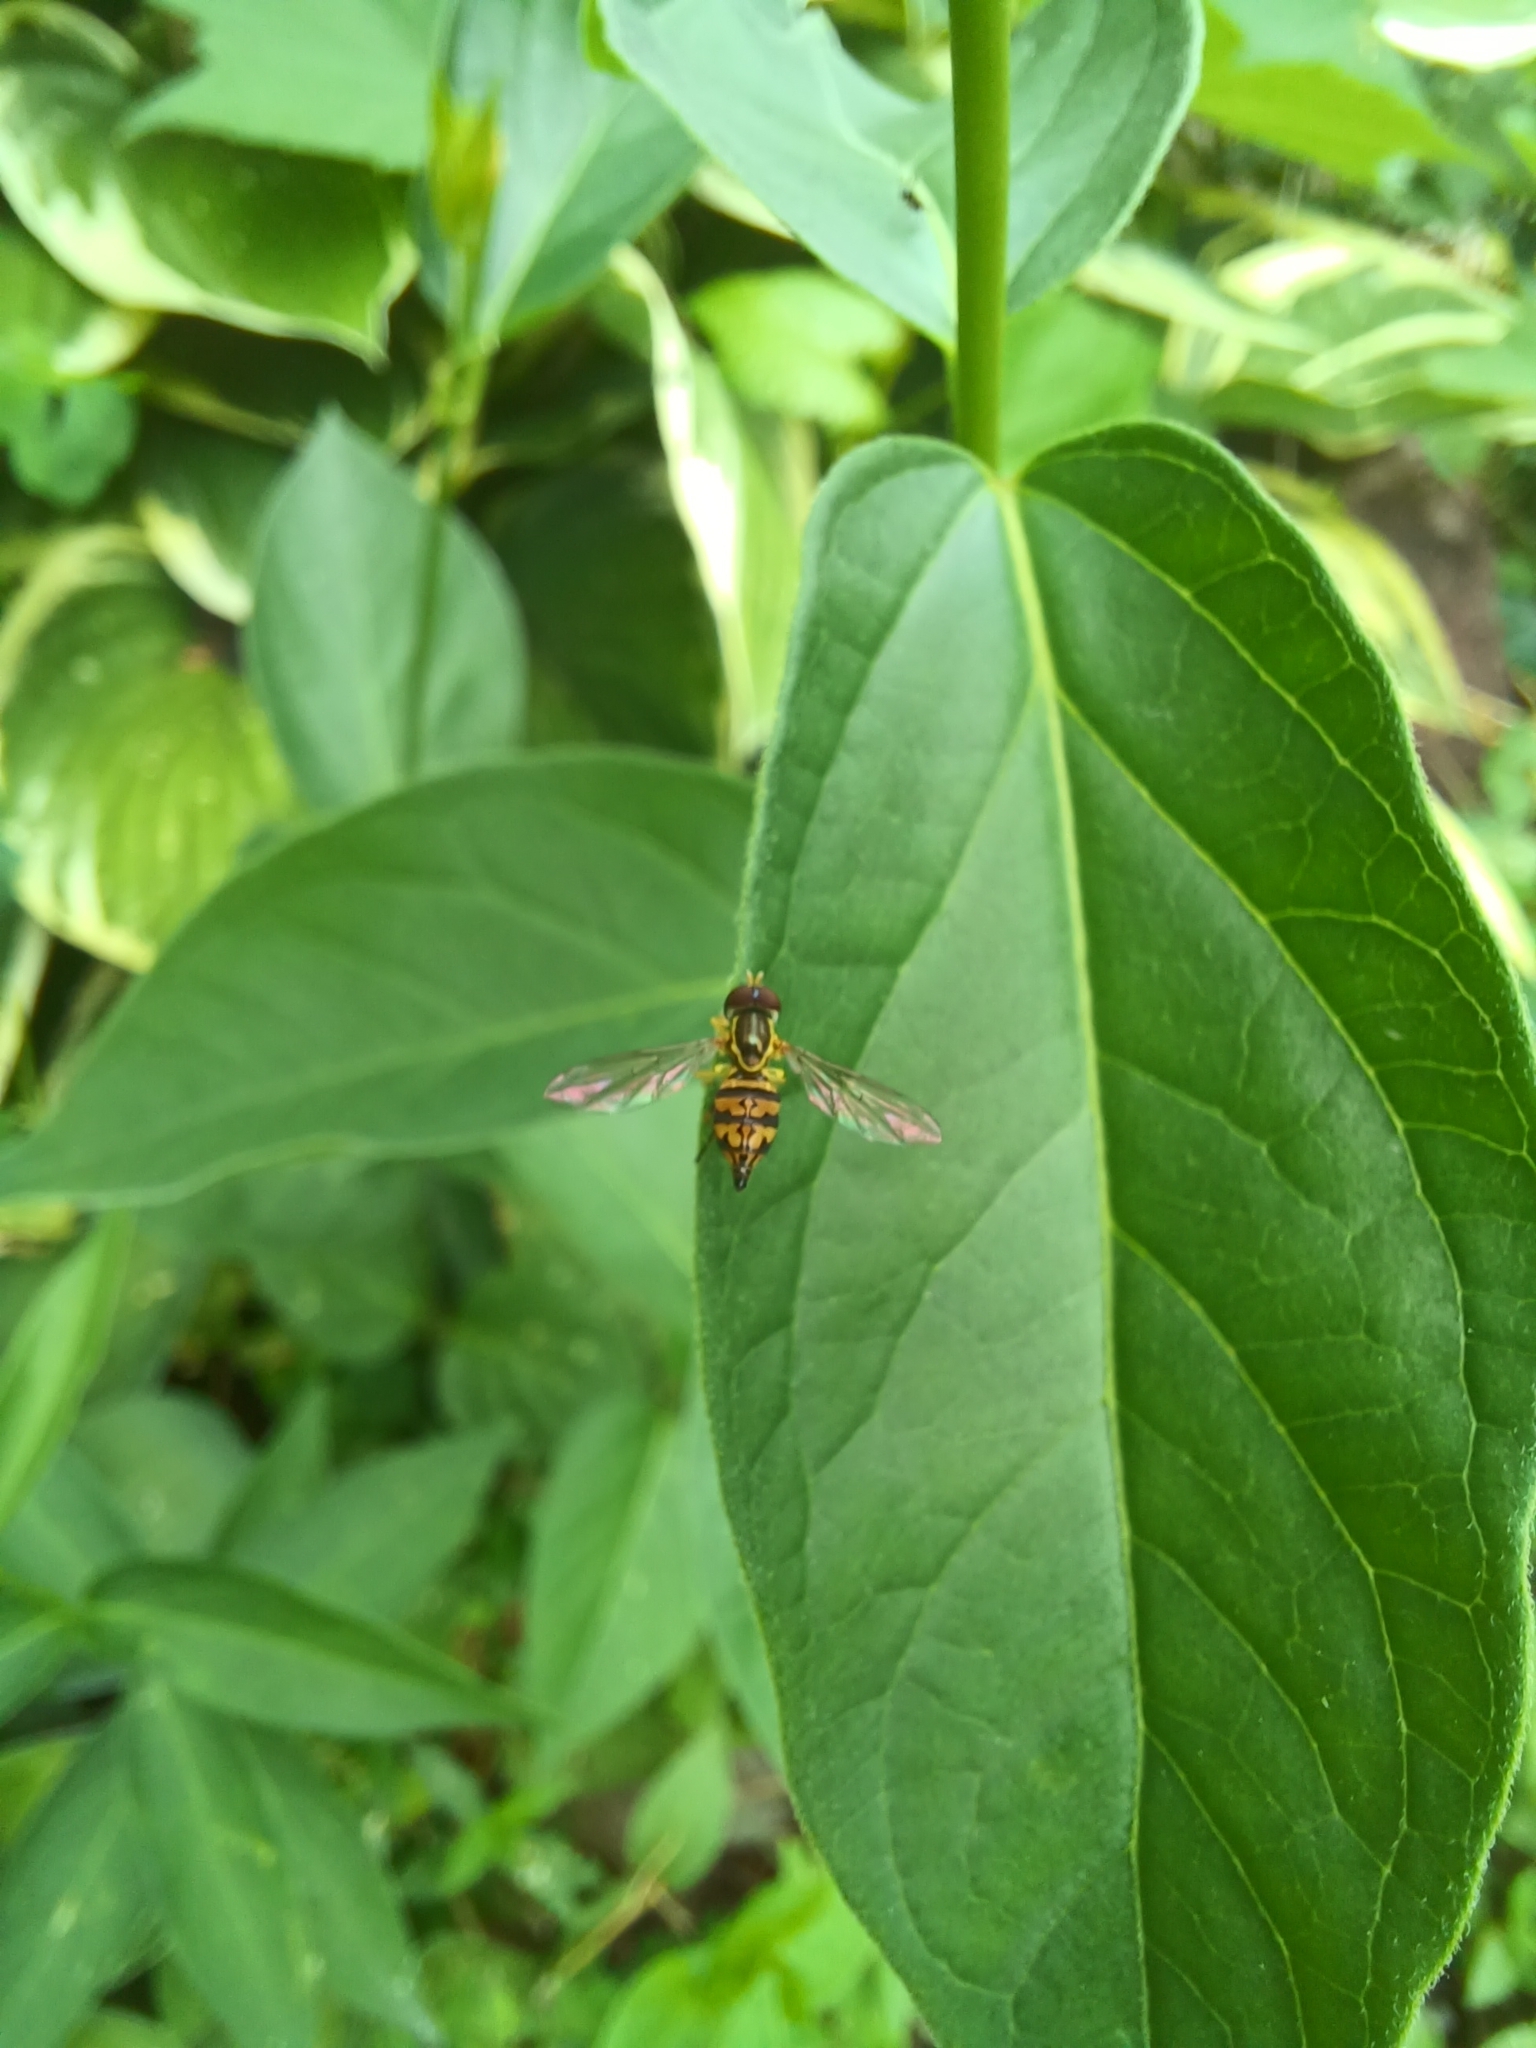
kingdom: Animalia
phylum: Arthropoda
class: Insecta
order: Diptera
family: Syrphidae
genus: Toxomerus
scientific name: Toxomerus geminatus
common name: Eastern calligrapher
